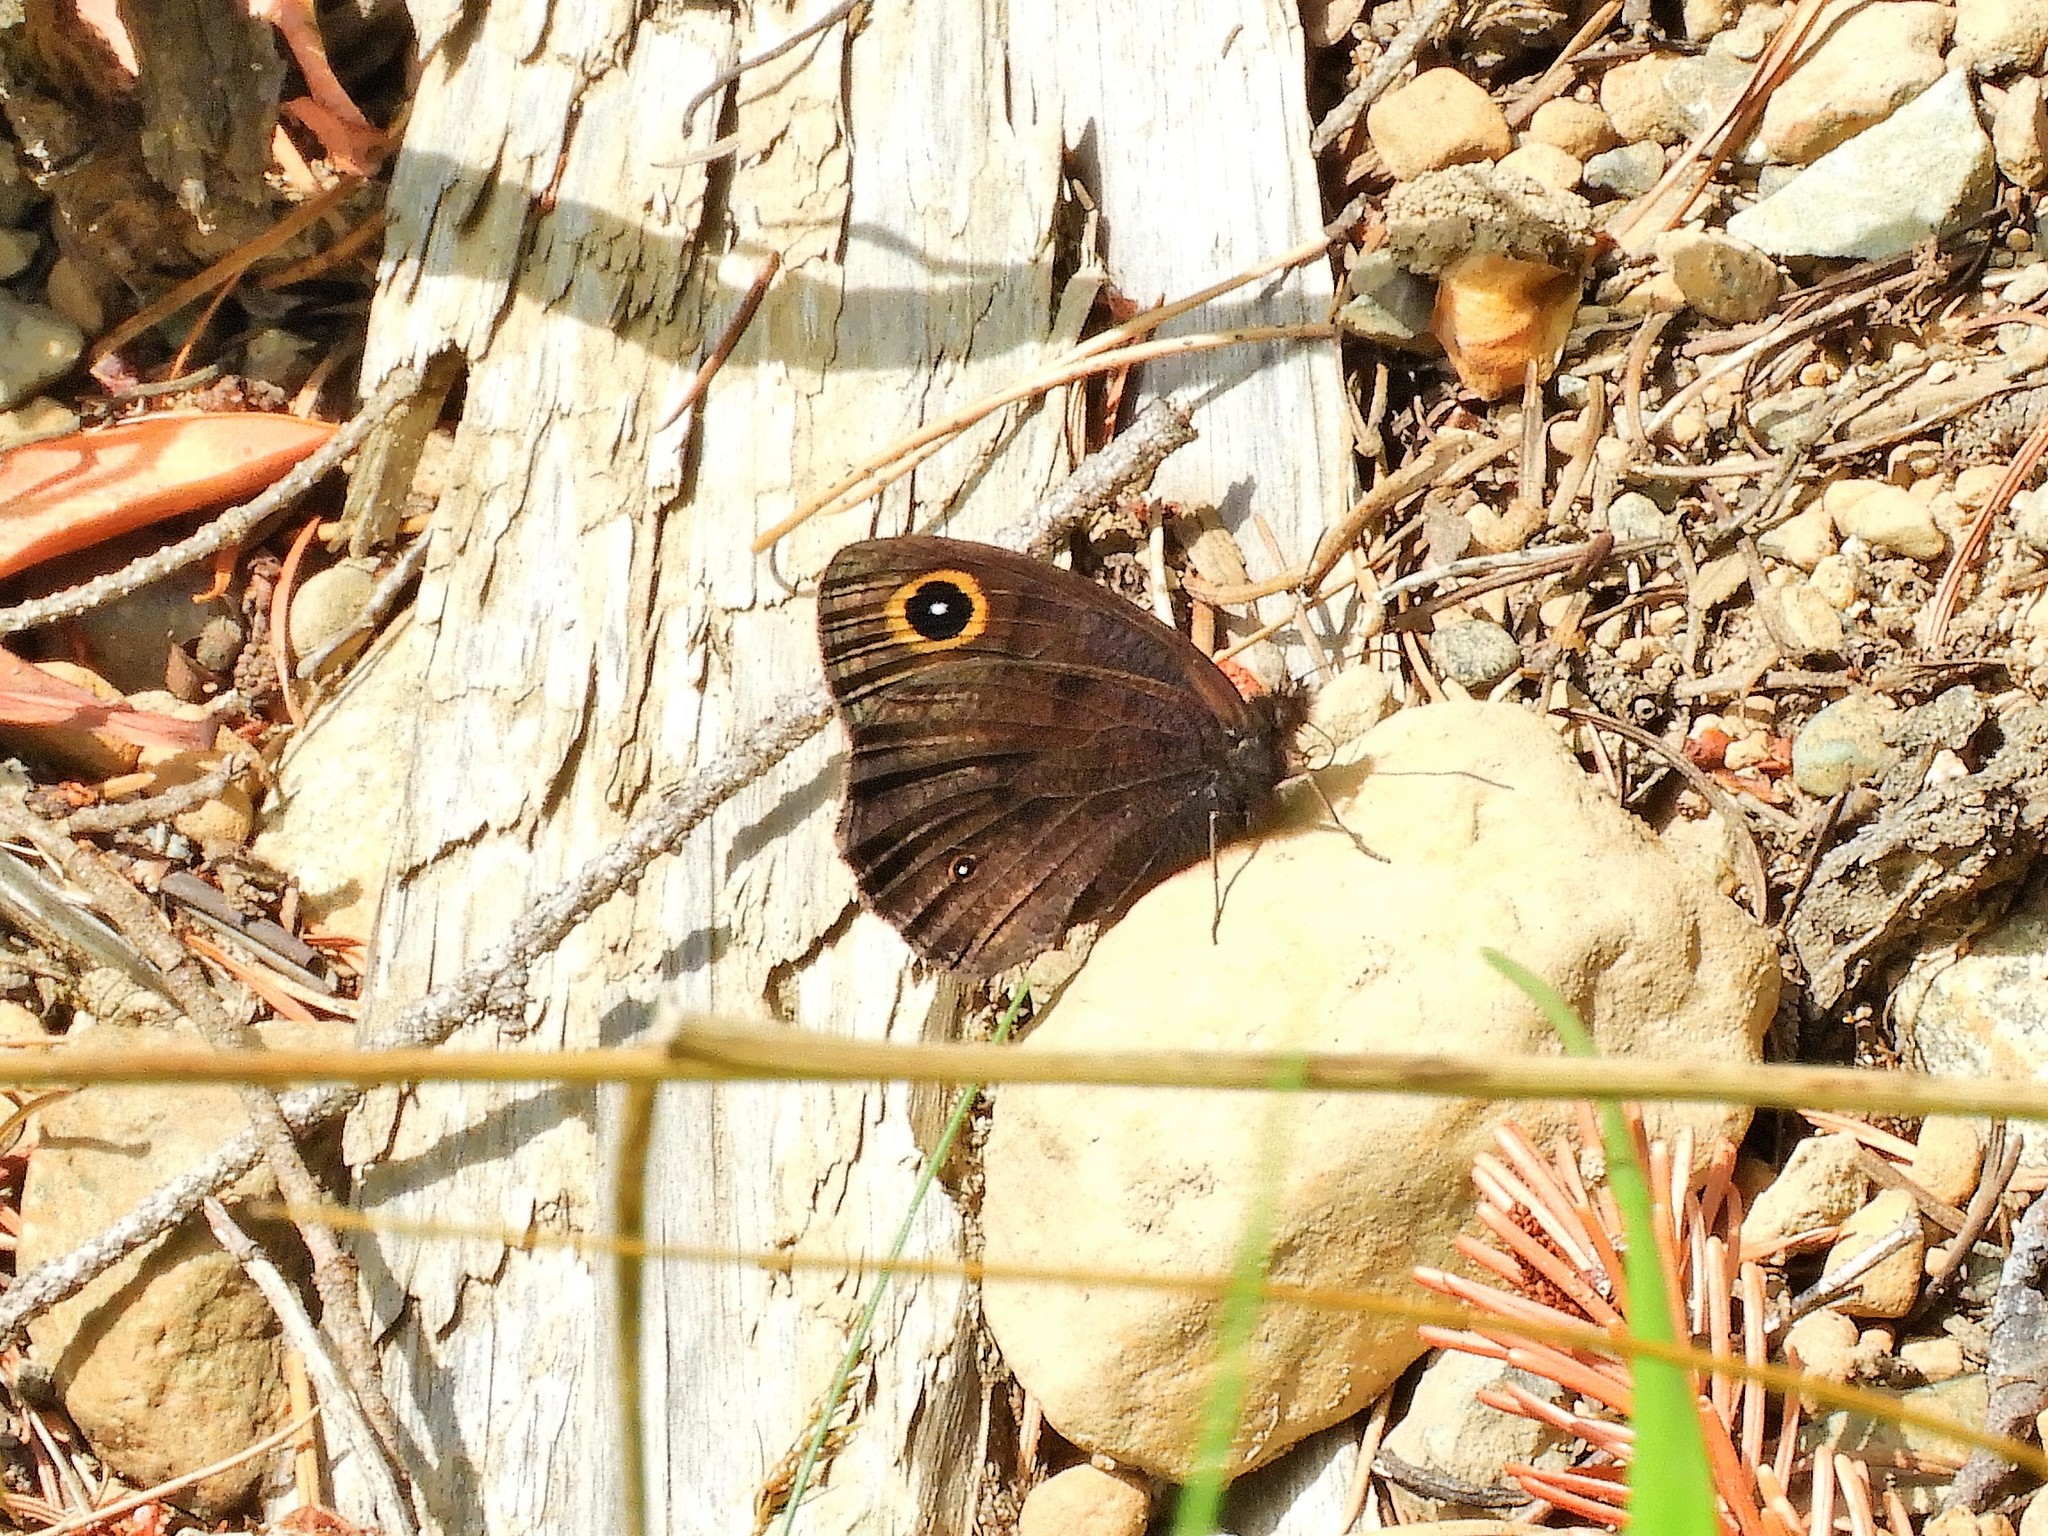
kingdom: Animalia
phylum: Arthropoda
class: Insecta
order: Lepidoptera
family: Nymphalidae
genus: Cercyonis
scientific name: Cercyonis pegala
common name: Common wood-nymph
